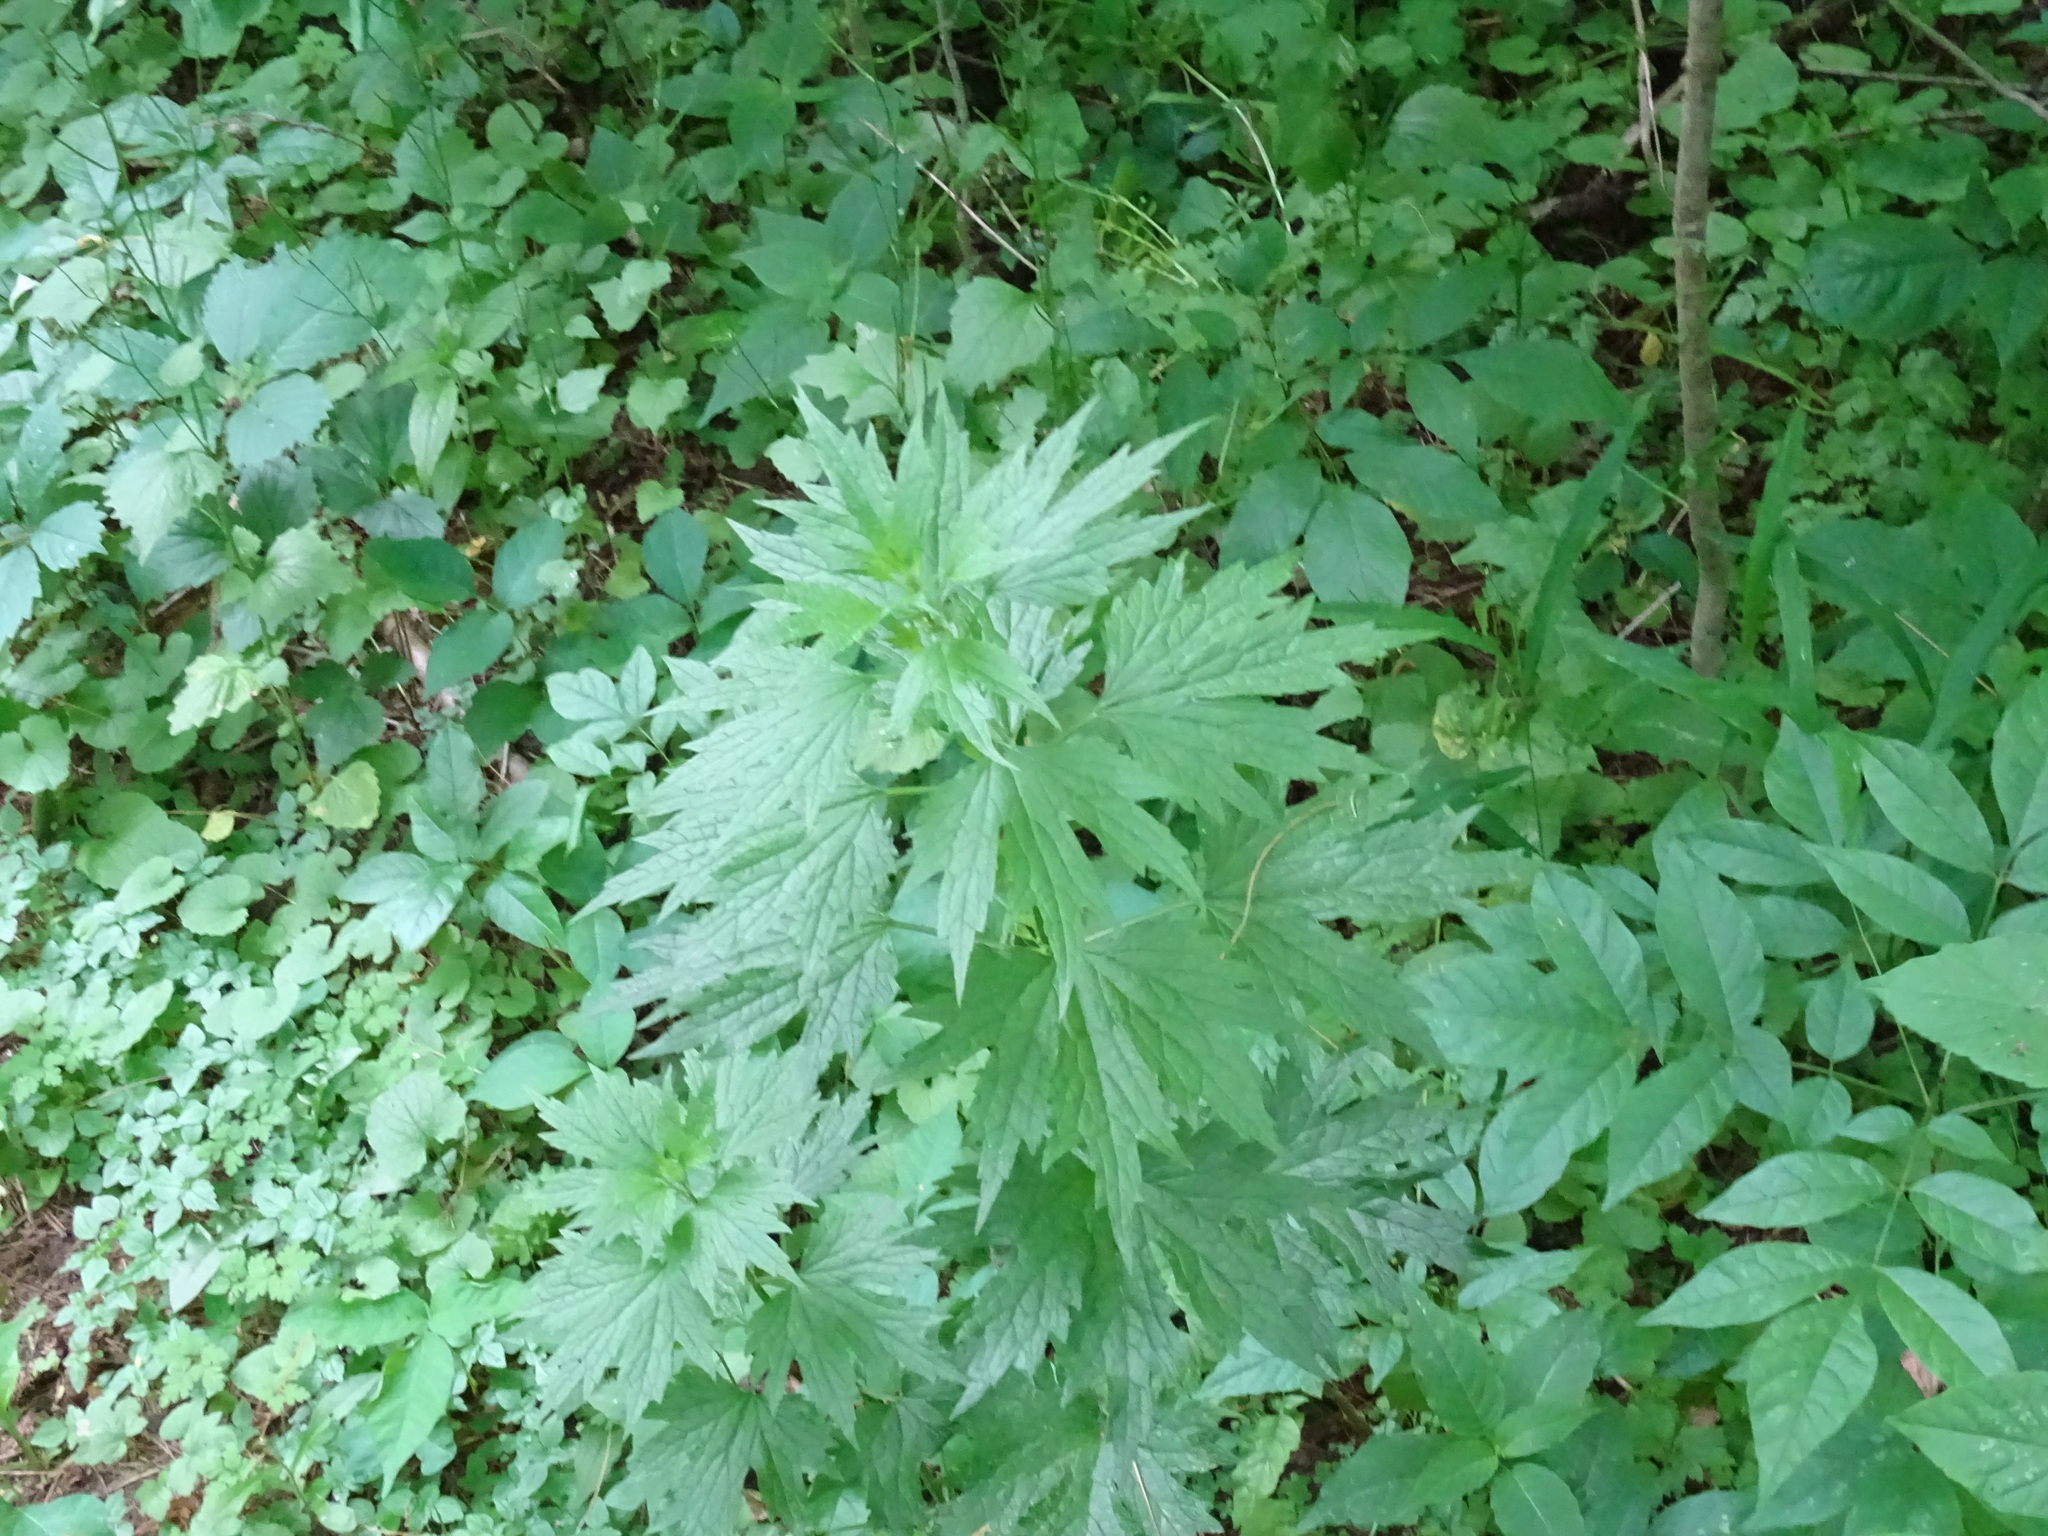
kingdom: Plantae
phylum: Tracheophyta
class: Magnoliopsida
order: Lamiales
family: Lamiaceae
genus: Leonurus
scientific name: Leonurus cardiaca
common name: Motherwort
